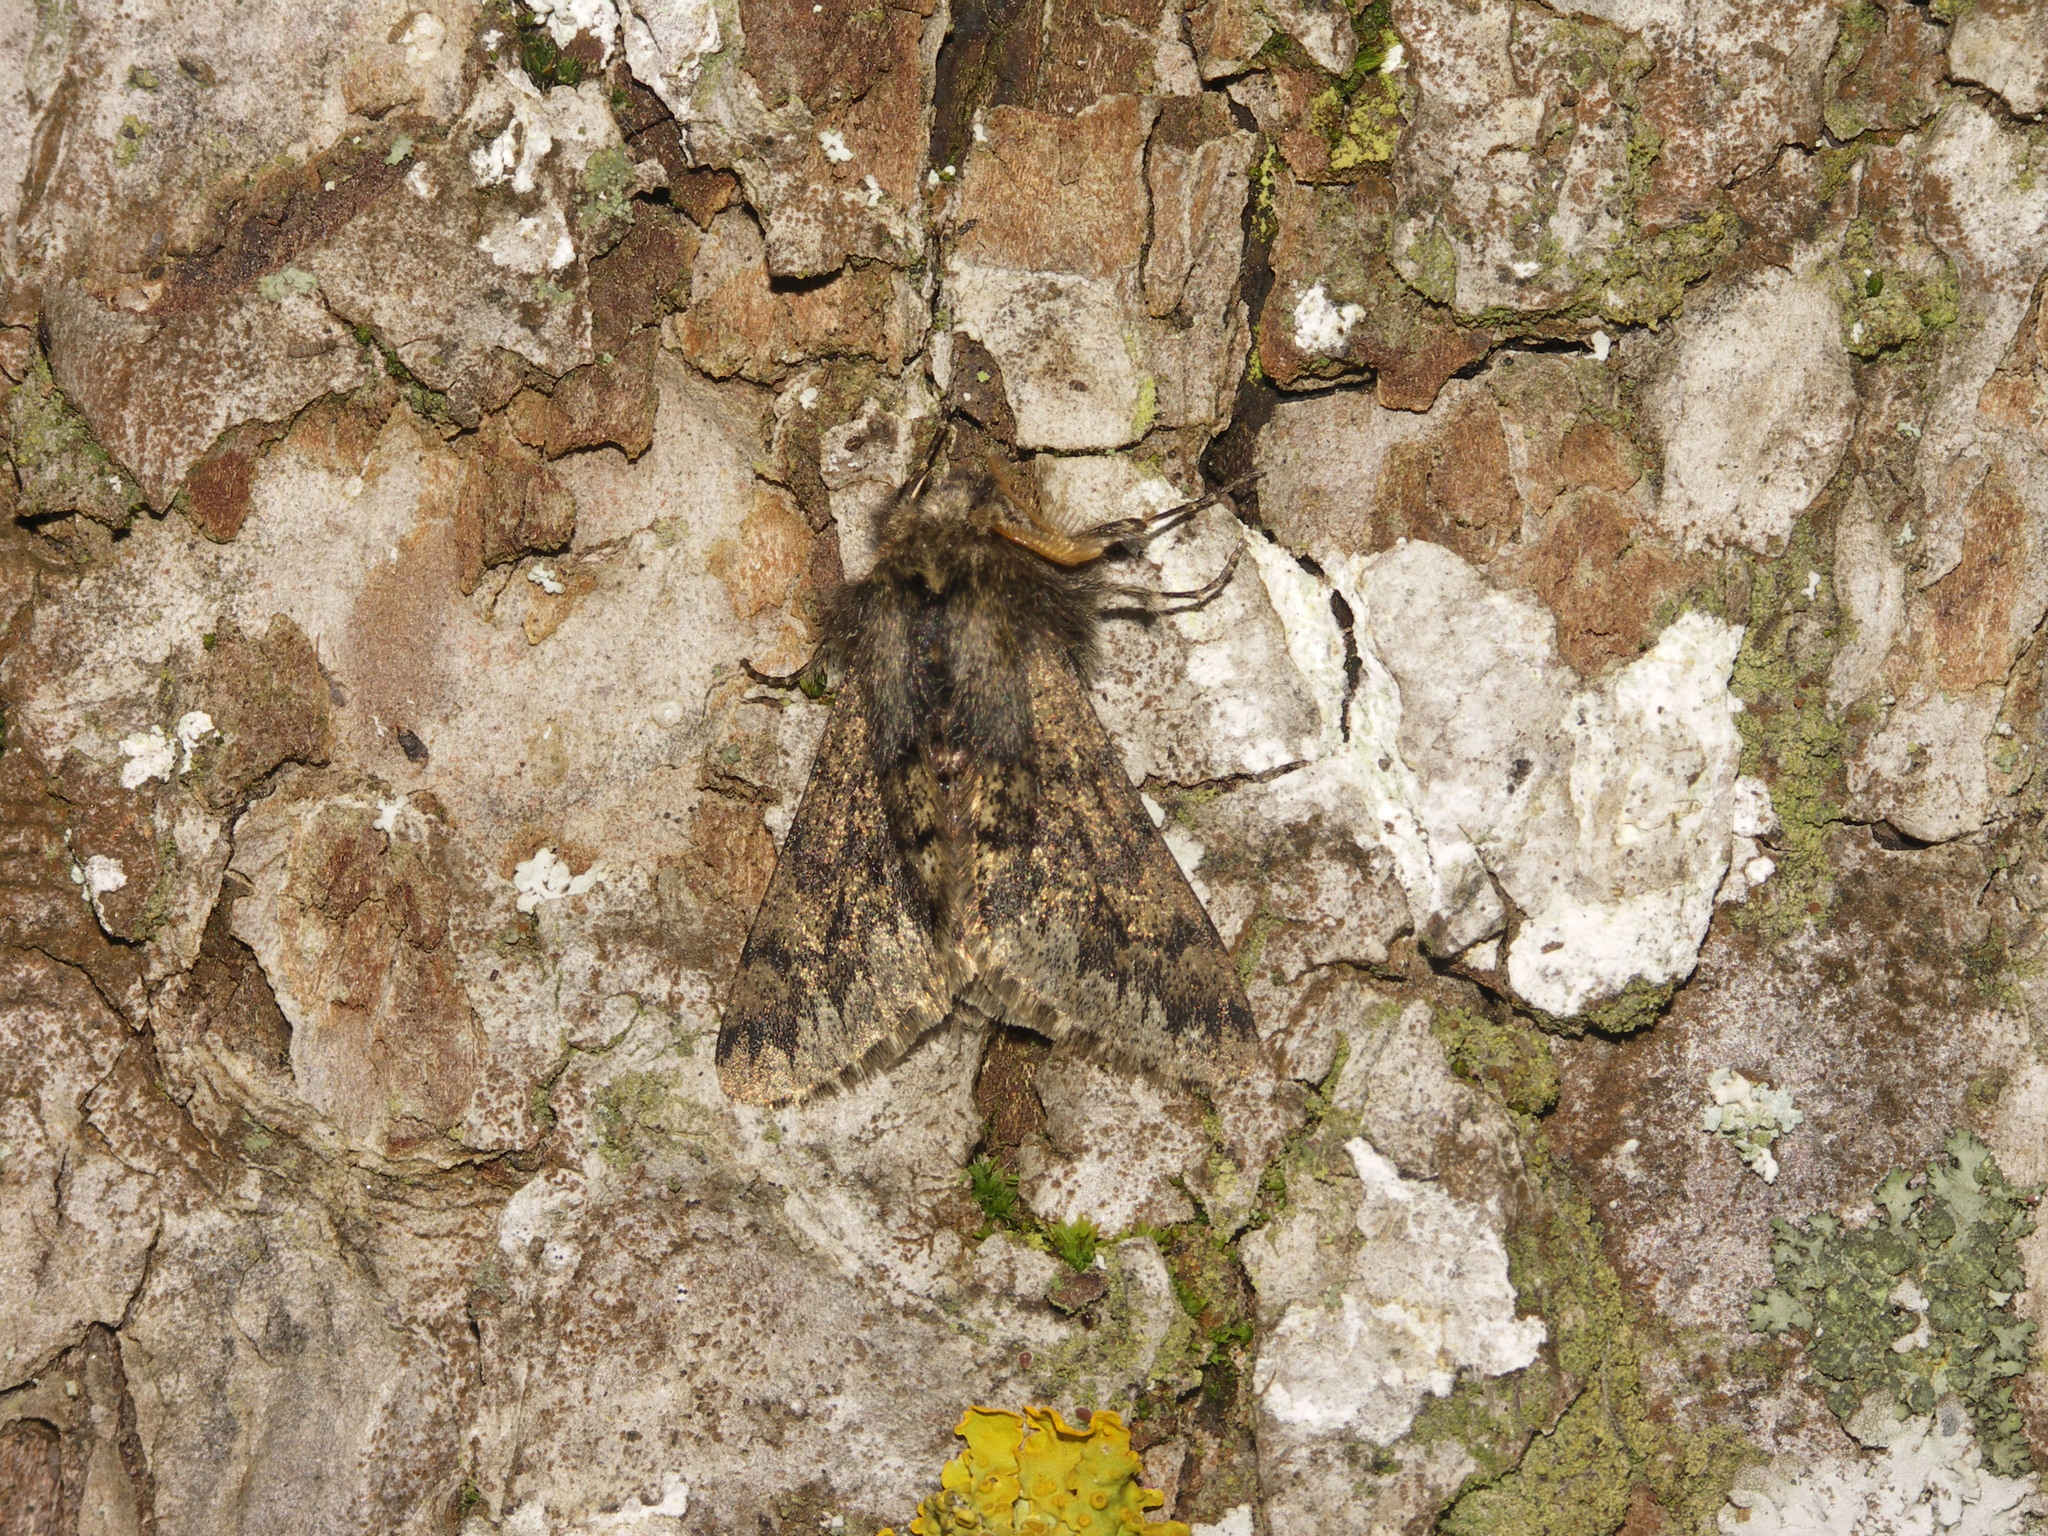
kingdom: Animalia
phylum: Arthropoda
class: Insecta
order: Lepidoptera
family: Geometridae
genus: Apocheima
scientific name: Apocheima hispidaria
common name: Small brindled beauty
